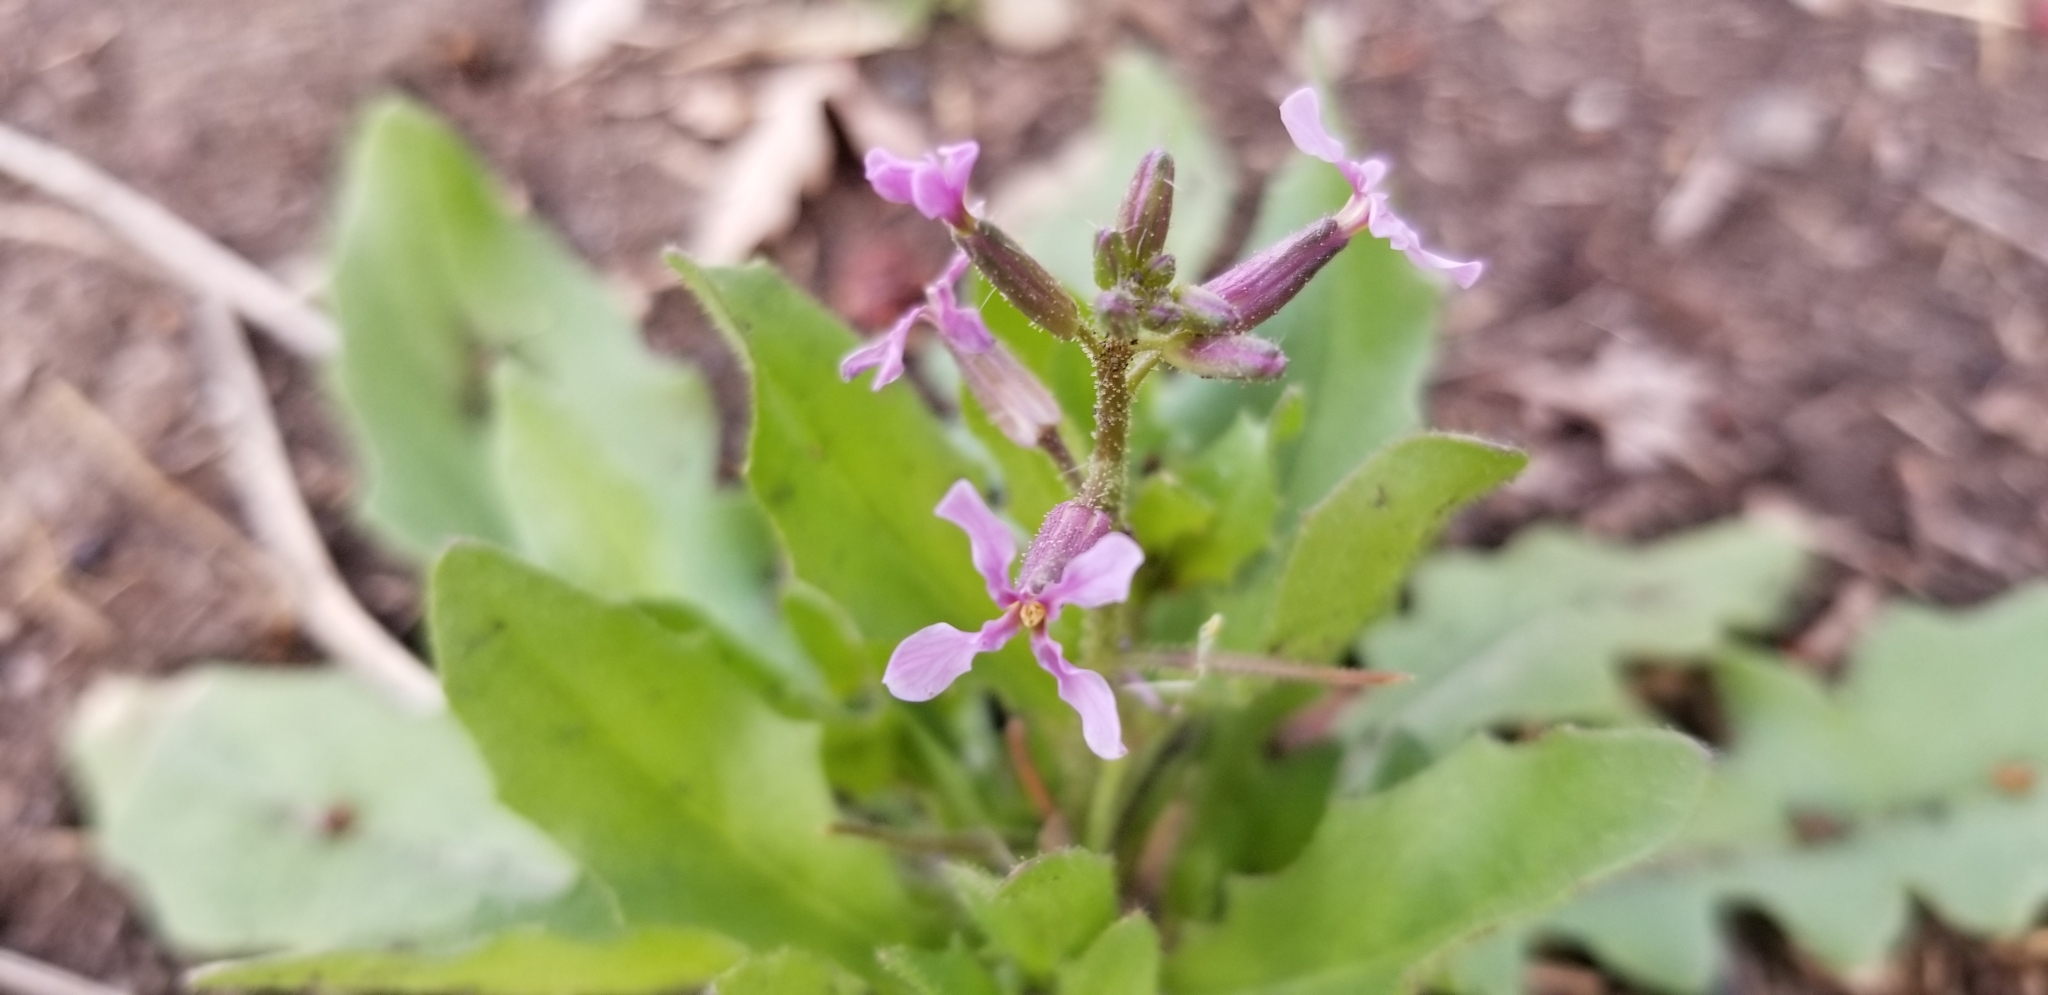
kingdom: Plantae
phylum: Tracheophyta
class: Magnoliopsida
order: Brassicales
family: Brassicaceae
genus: Chorispora
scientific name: Chorispora tenella
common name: Crossflower
